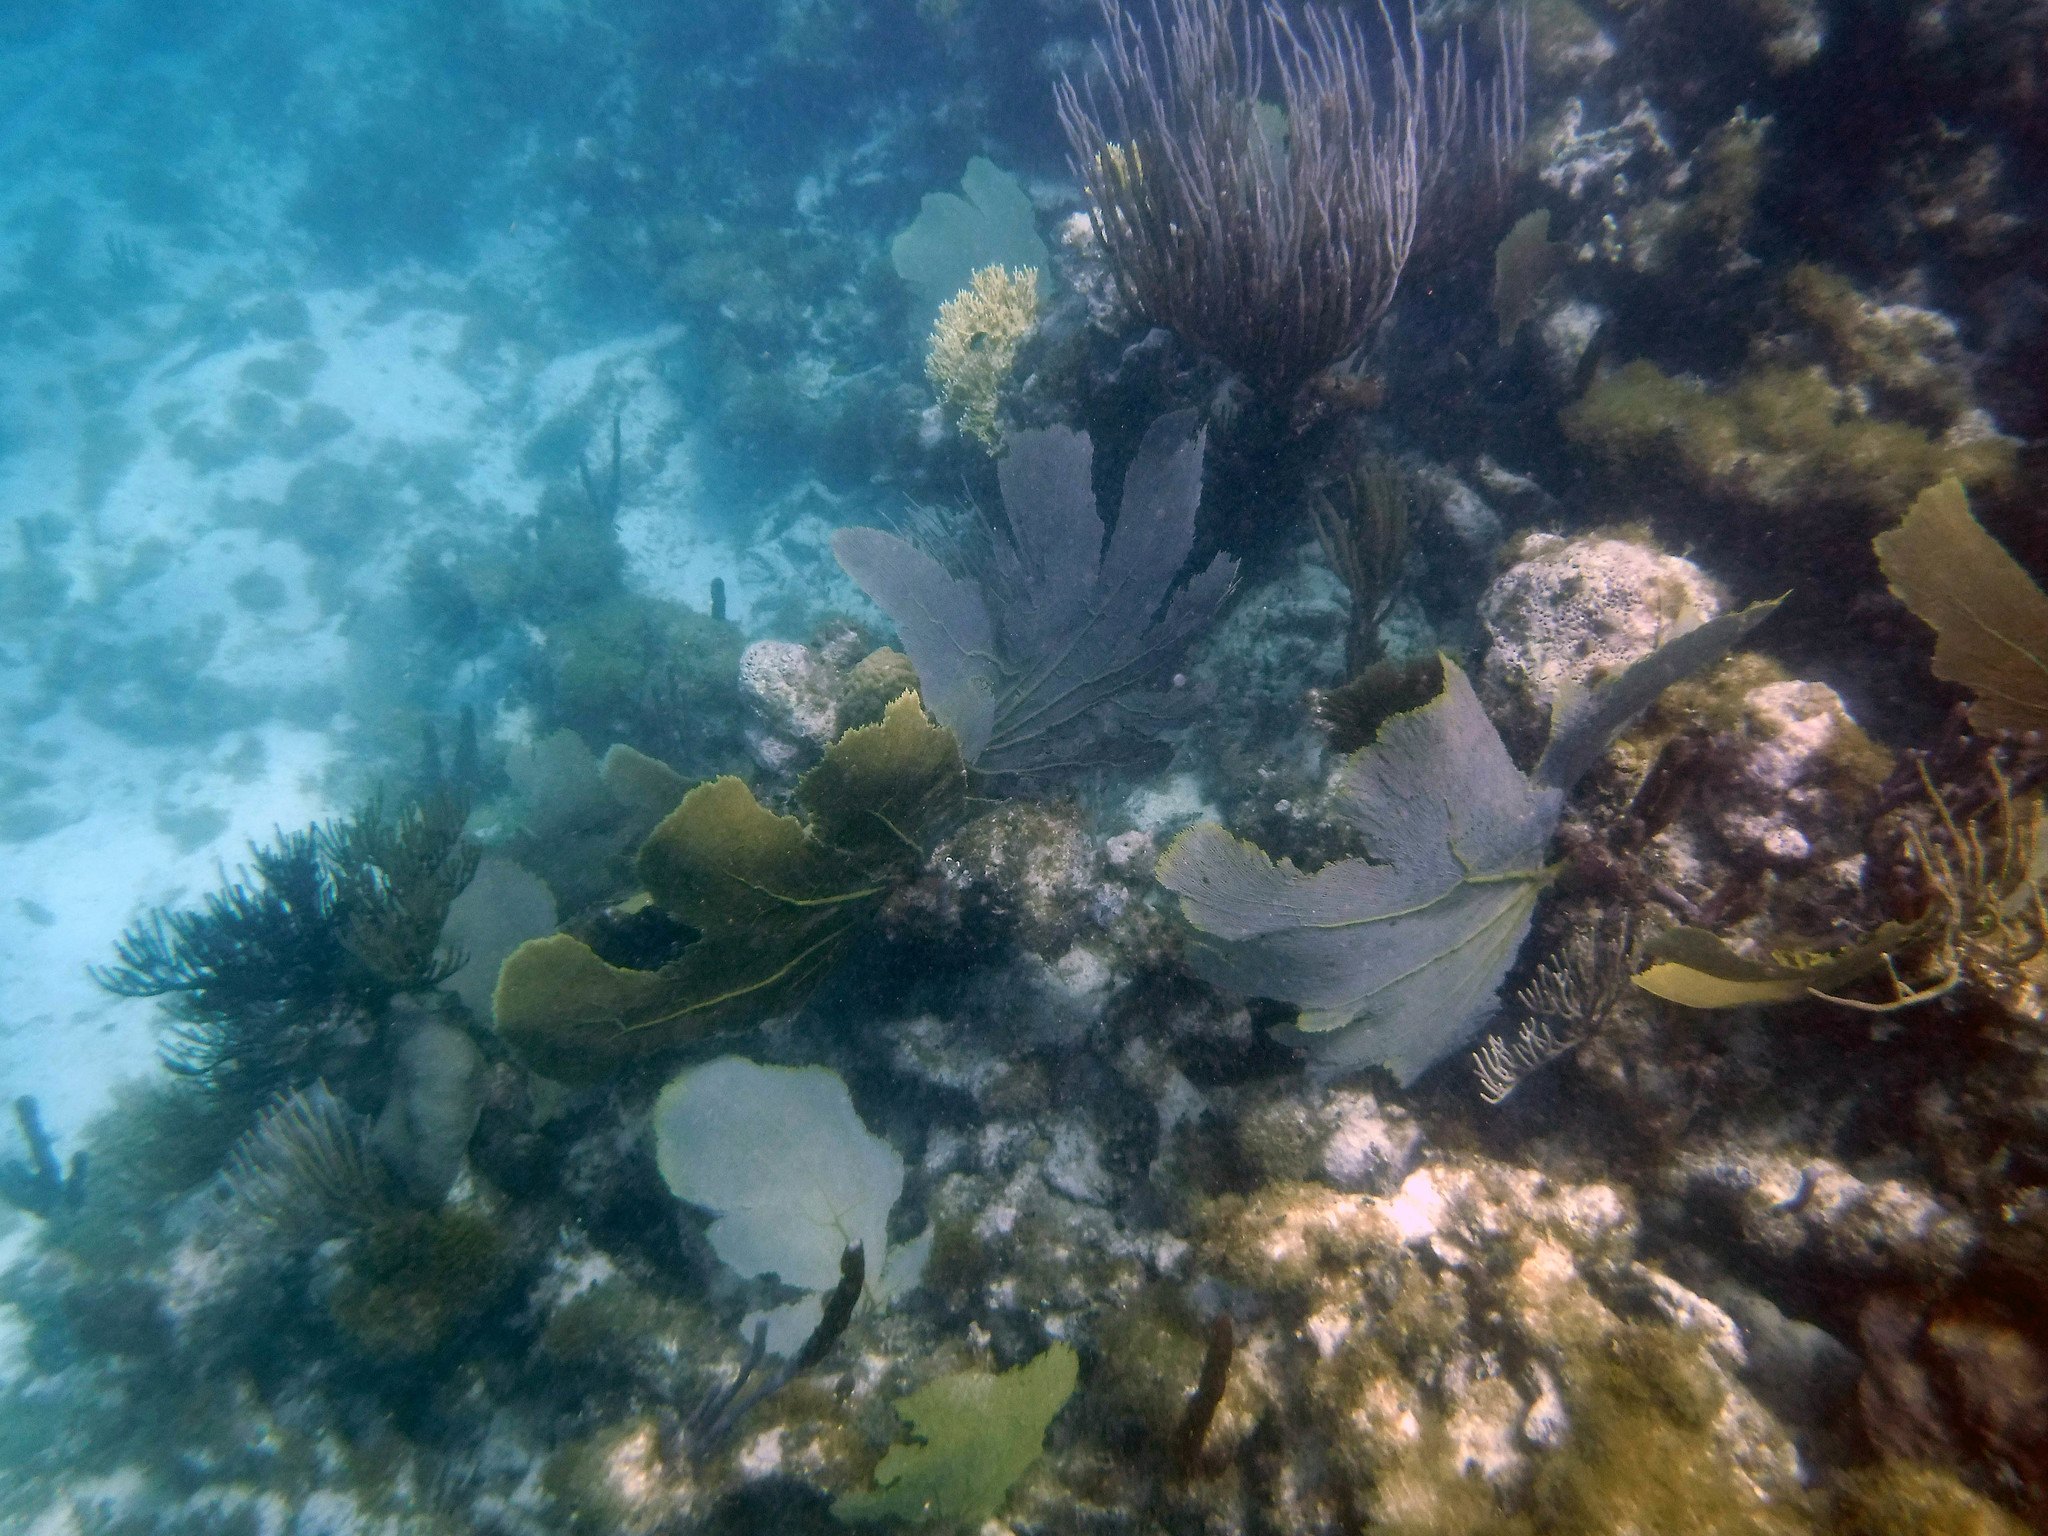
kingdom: Animalia
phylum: Cnidaria
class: Anthozoa
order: Malacalcyonacea
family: Gorgoniidae
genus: Gorgonia
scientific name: Gorgonia ventalina
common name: Common sea fan
